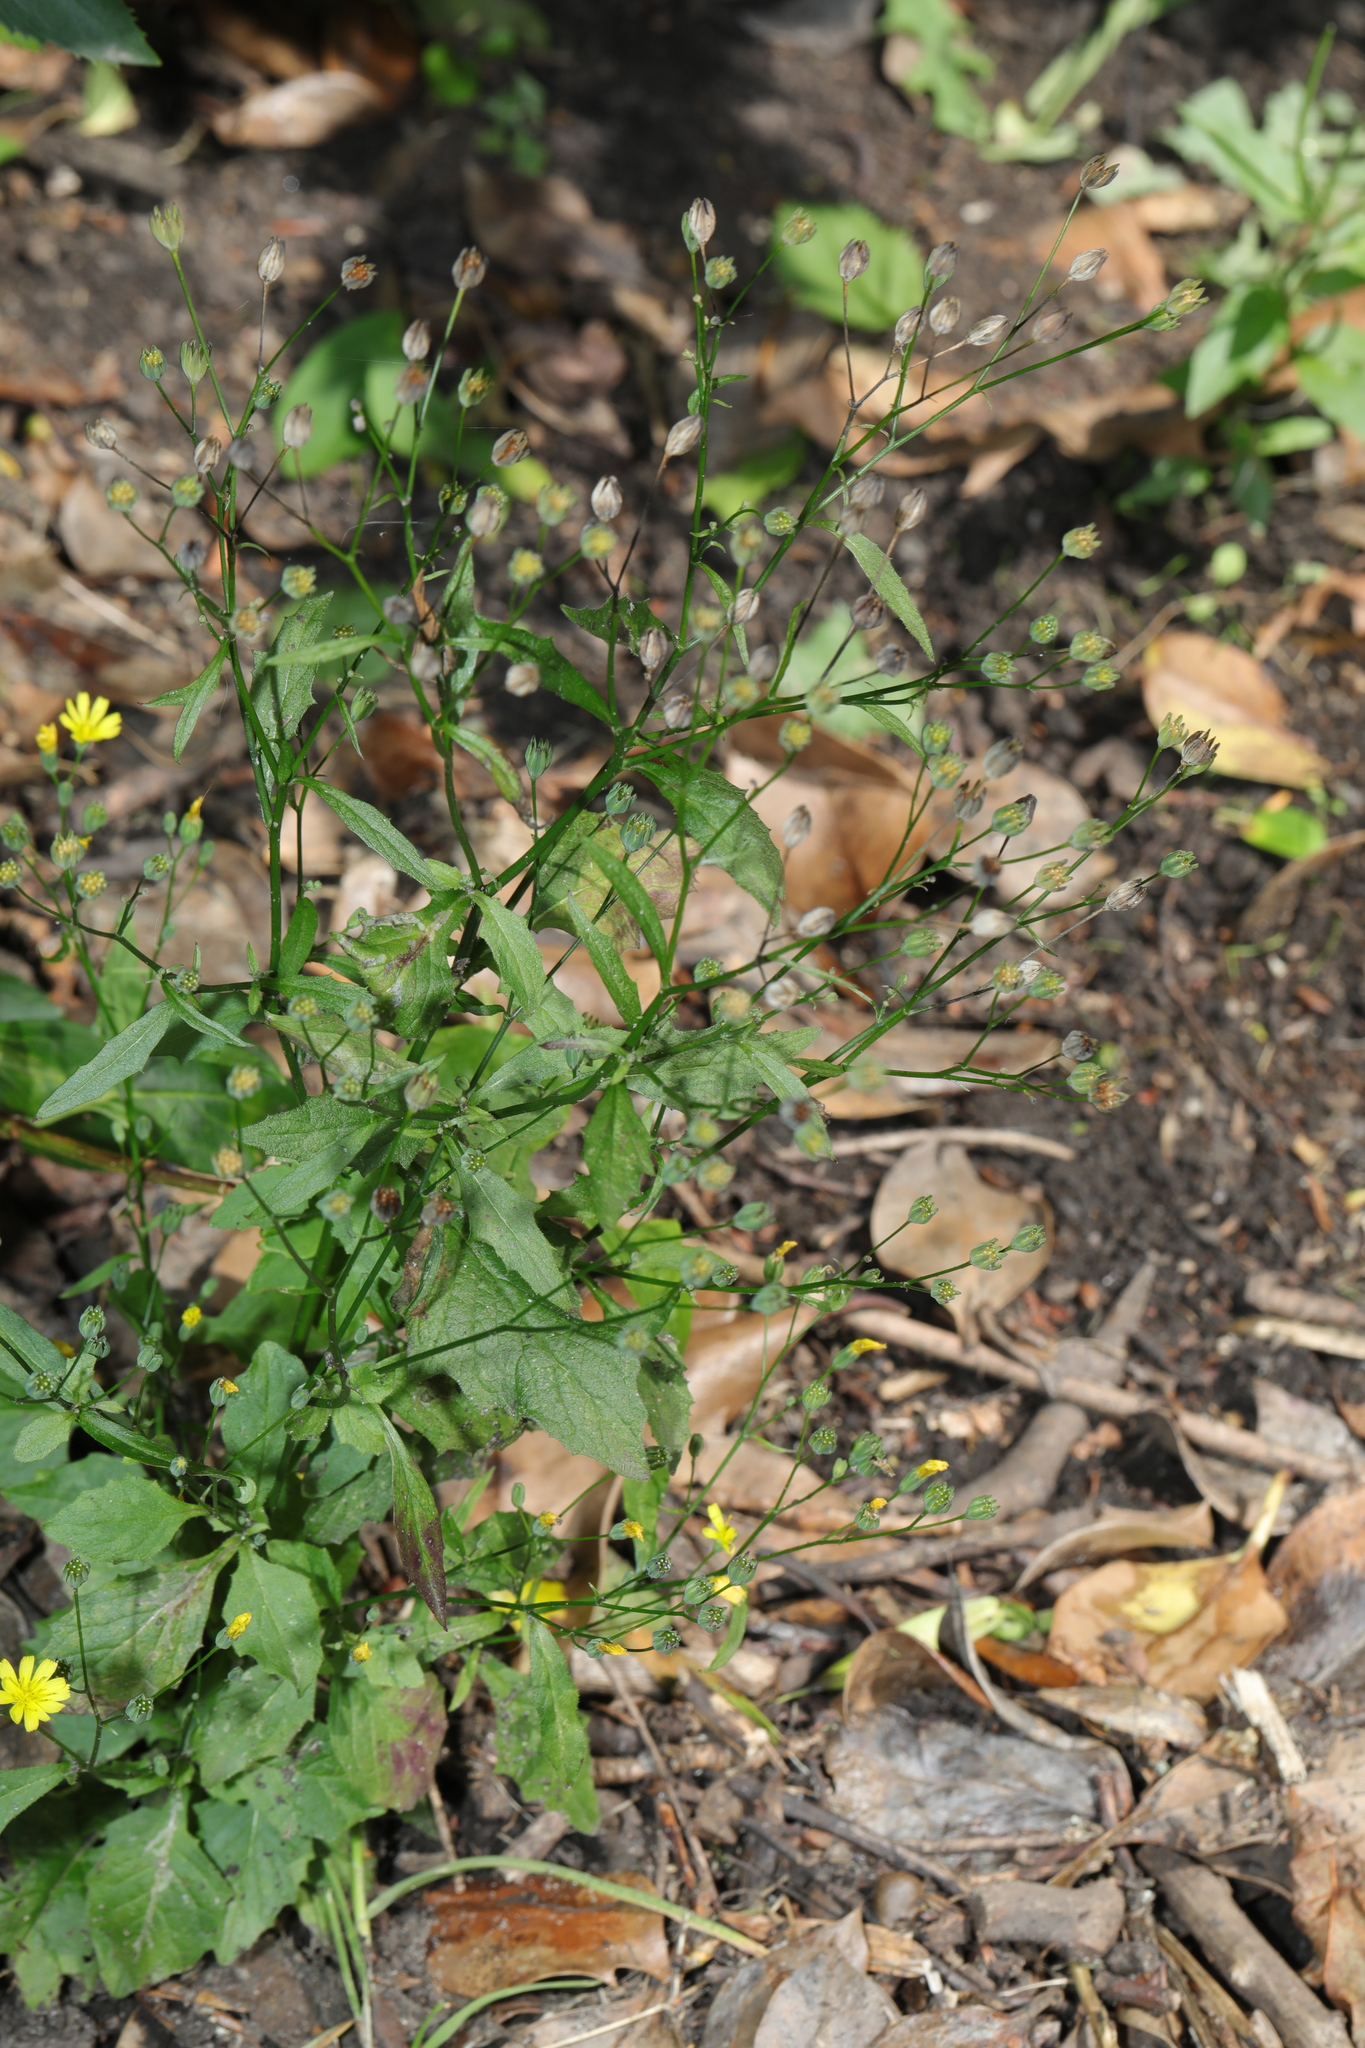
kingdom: Plantae
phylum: Tracheophyta
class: Magnoliopsida
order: Asterales
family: Asteraceae
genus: Lapsana
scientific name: Lapsana communis
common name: Nipplewort
